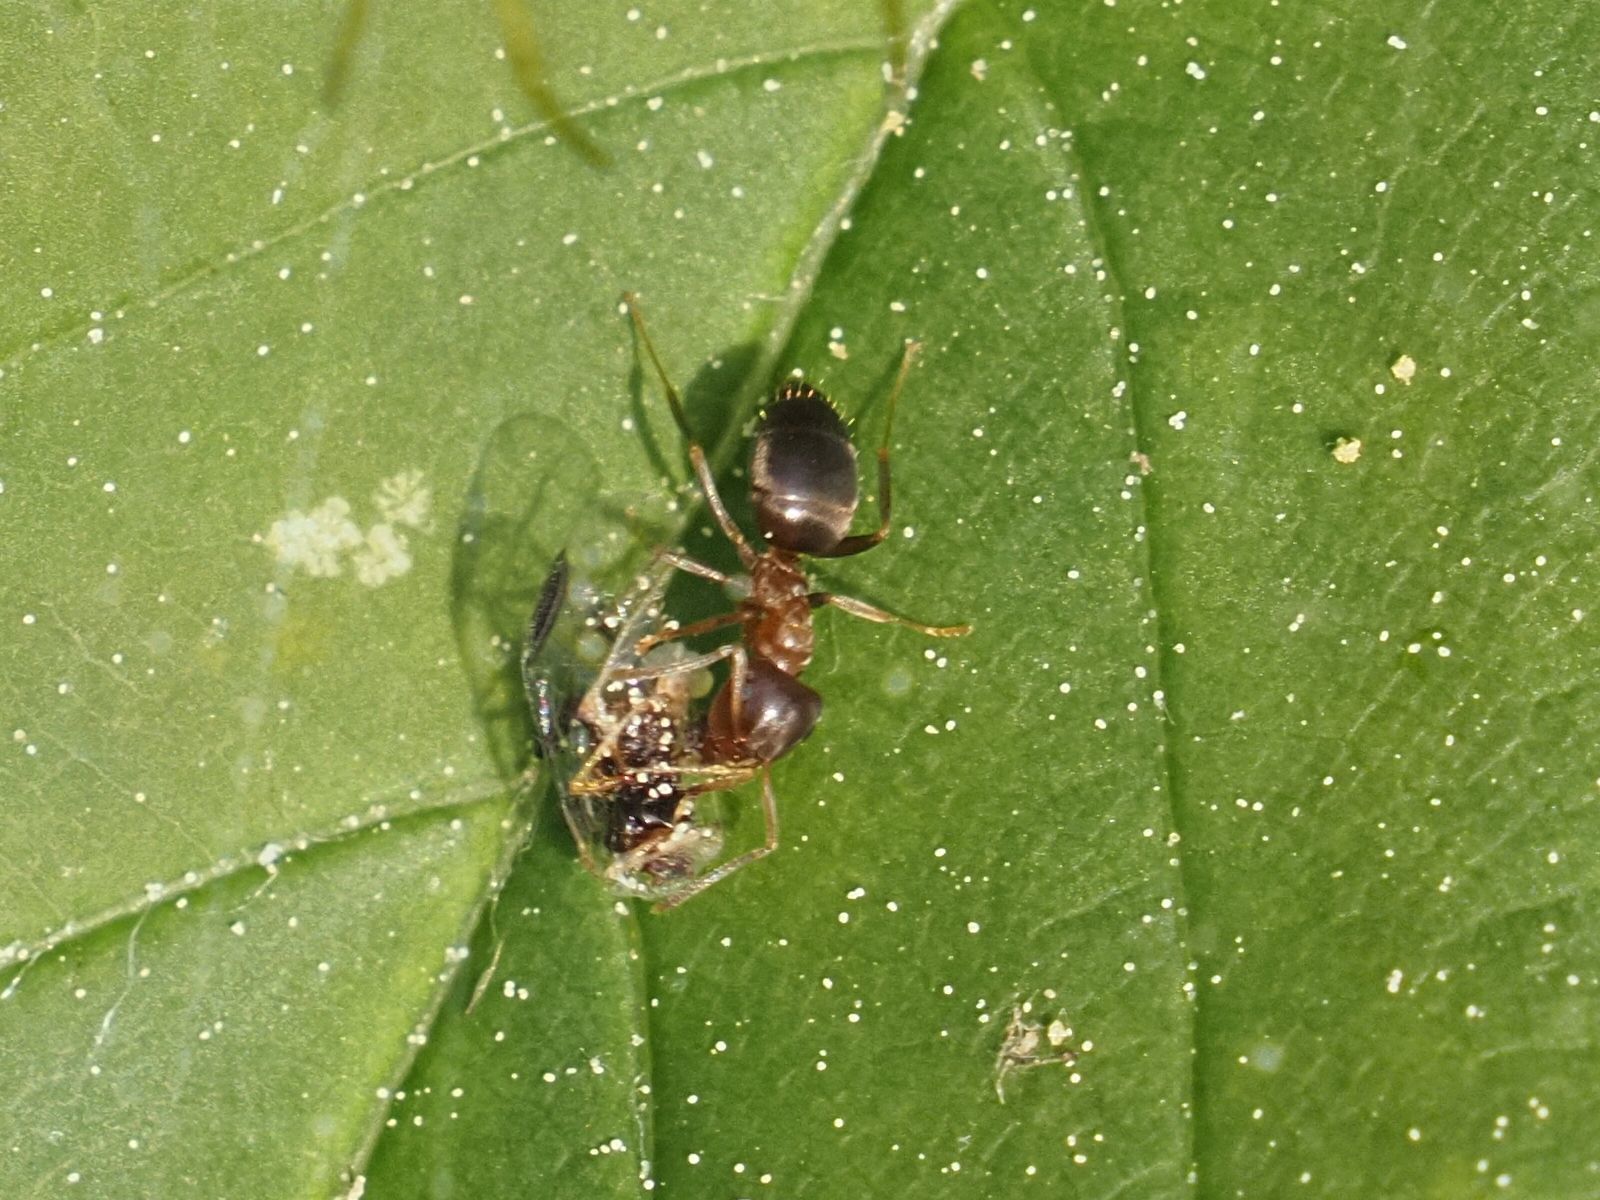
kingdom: Animalia
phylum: Arthropoda
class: Insecta
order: Hymenoptera
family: Formicidae
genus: Lasius
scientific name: Lasius brunneus
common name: Brown ant
